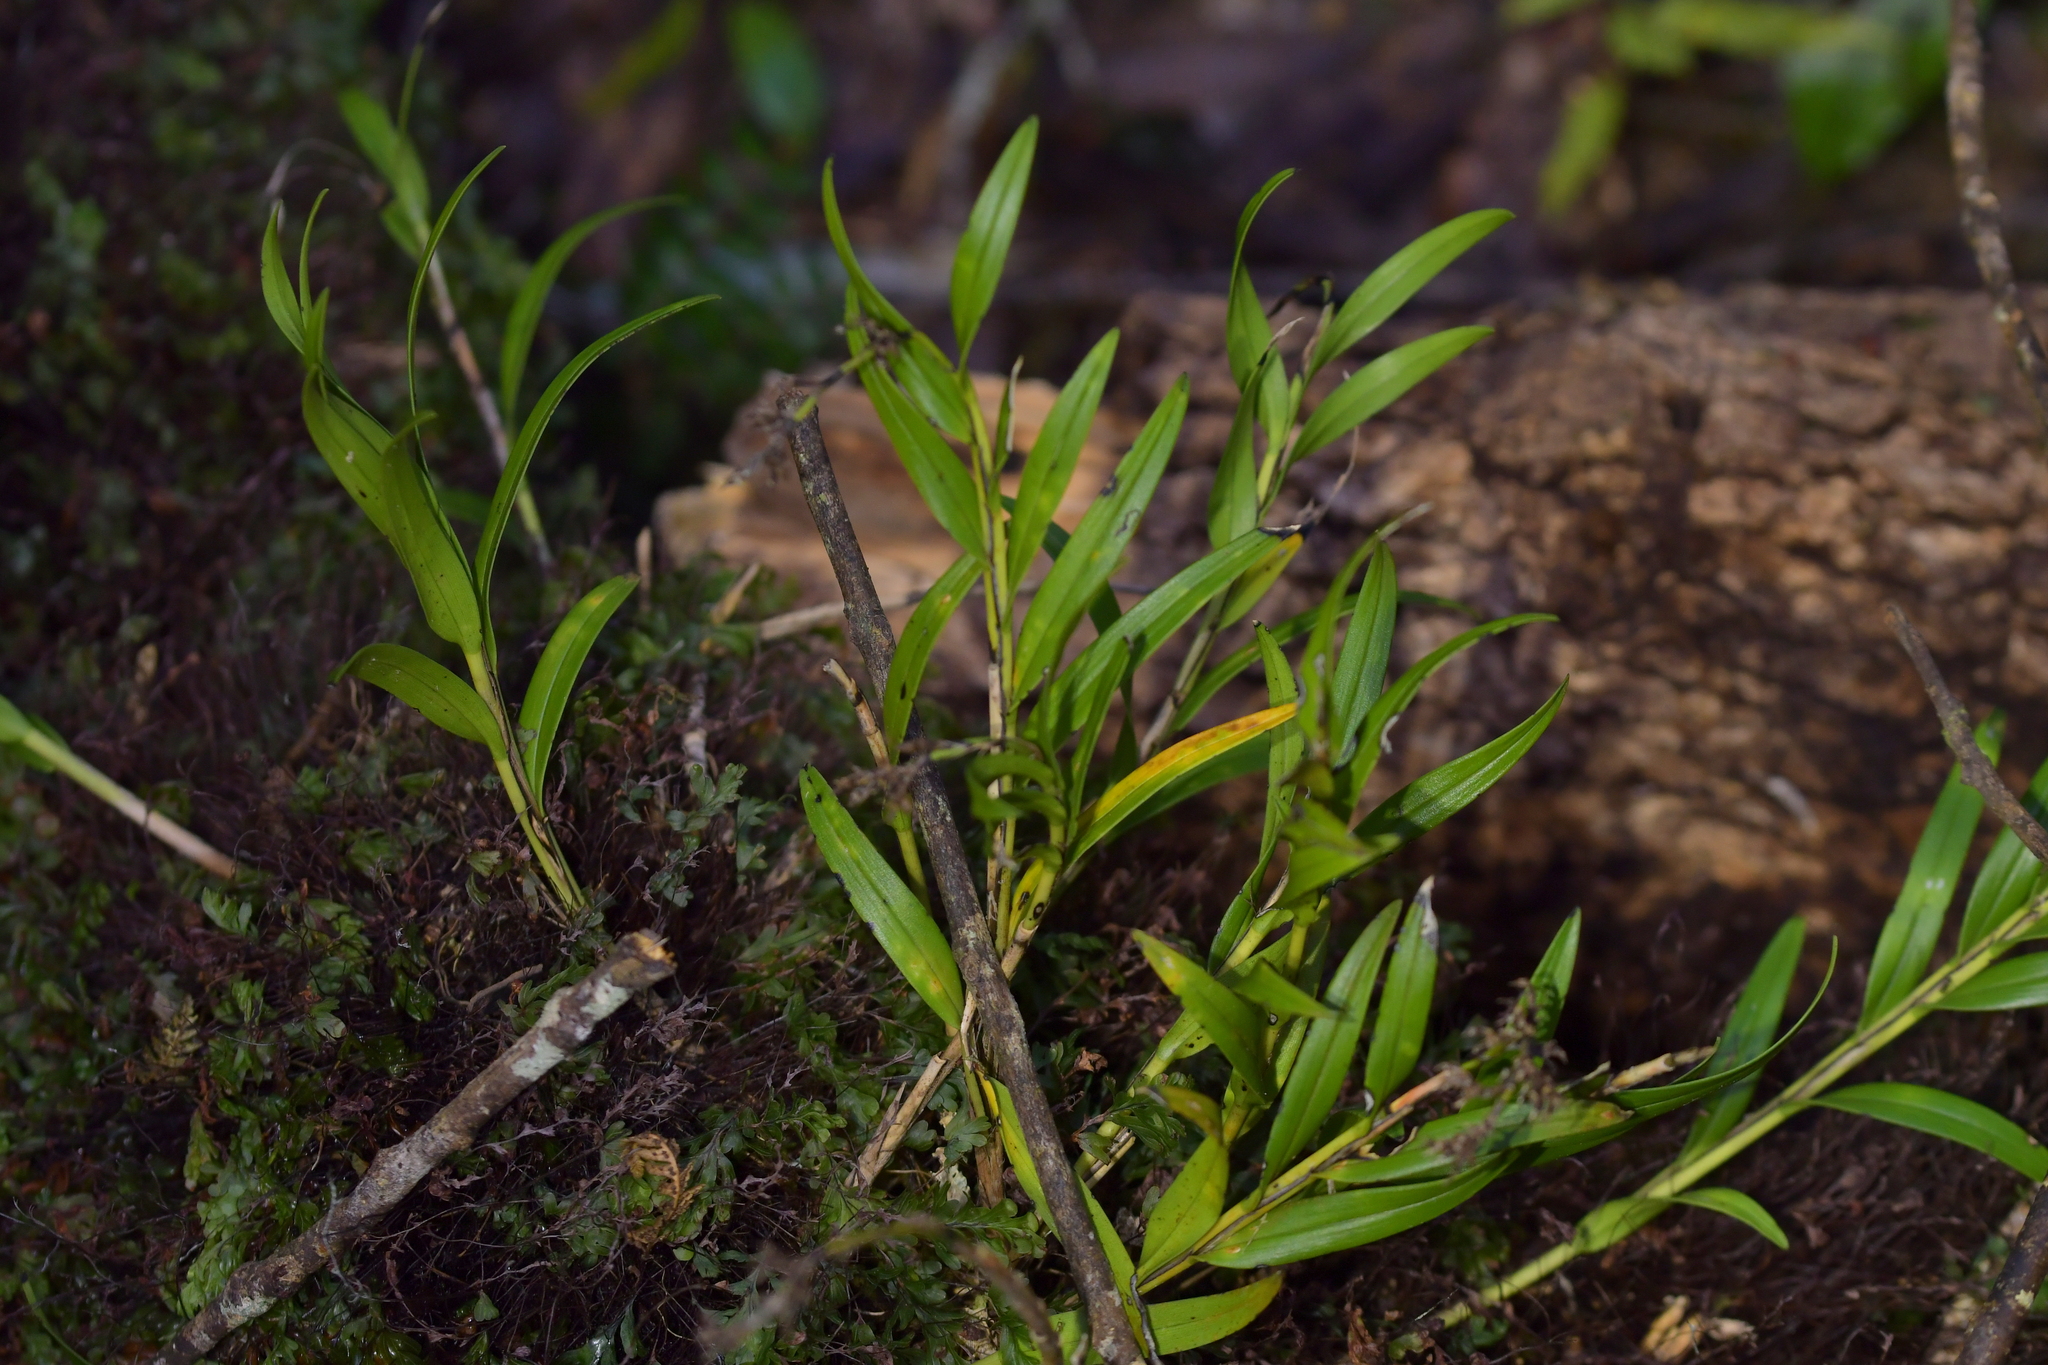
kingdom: Plantae
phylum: Tracheophyta
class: Liliopsida
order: Asparagales
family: Orchidaceae
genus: Earina
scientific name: Earina autumnalis
